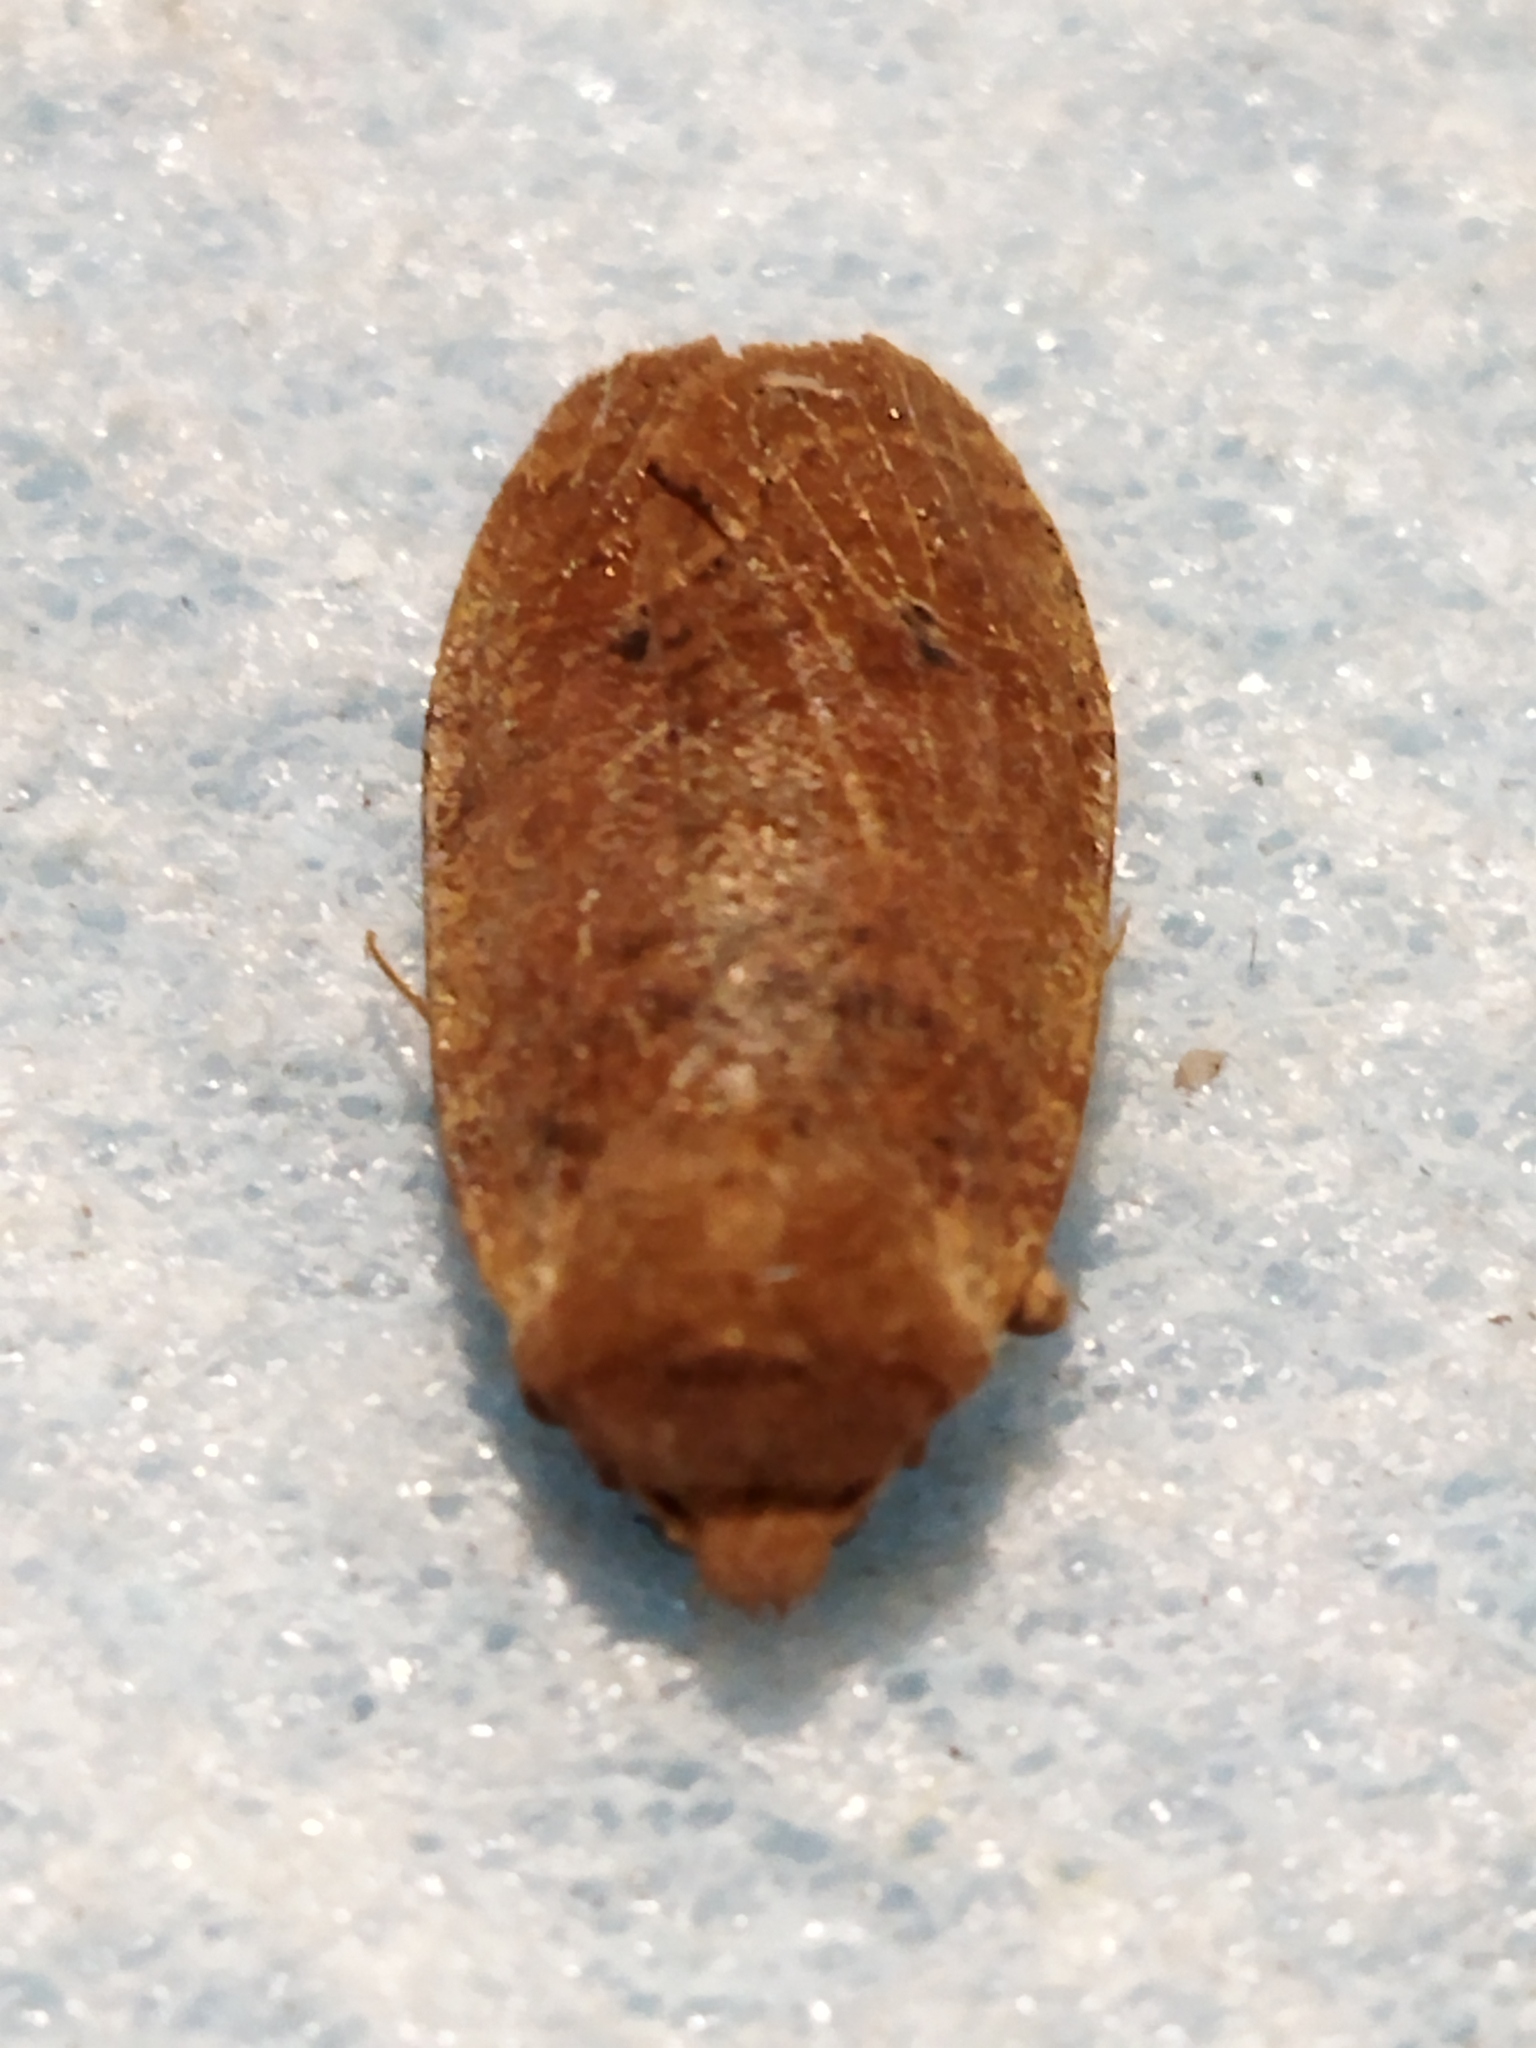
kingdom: Animalia
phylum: Arthropoda
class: Insecta
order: Lepidoptera
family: Noctuidae
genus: Conistra
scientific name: Conistra ragusae
